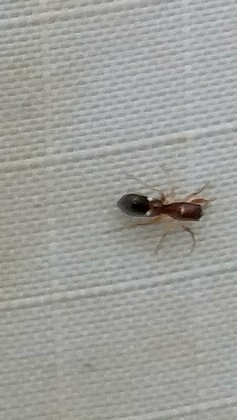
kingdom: Animalia
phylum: Arthropoda
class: Arachnida
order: Araneae
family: Salticidae
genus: Synageles
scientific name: Synageles
